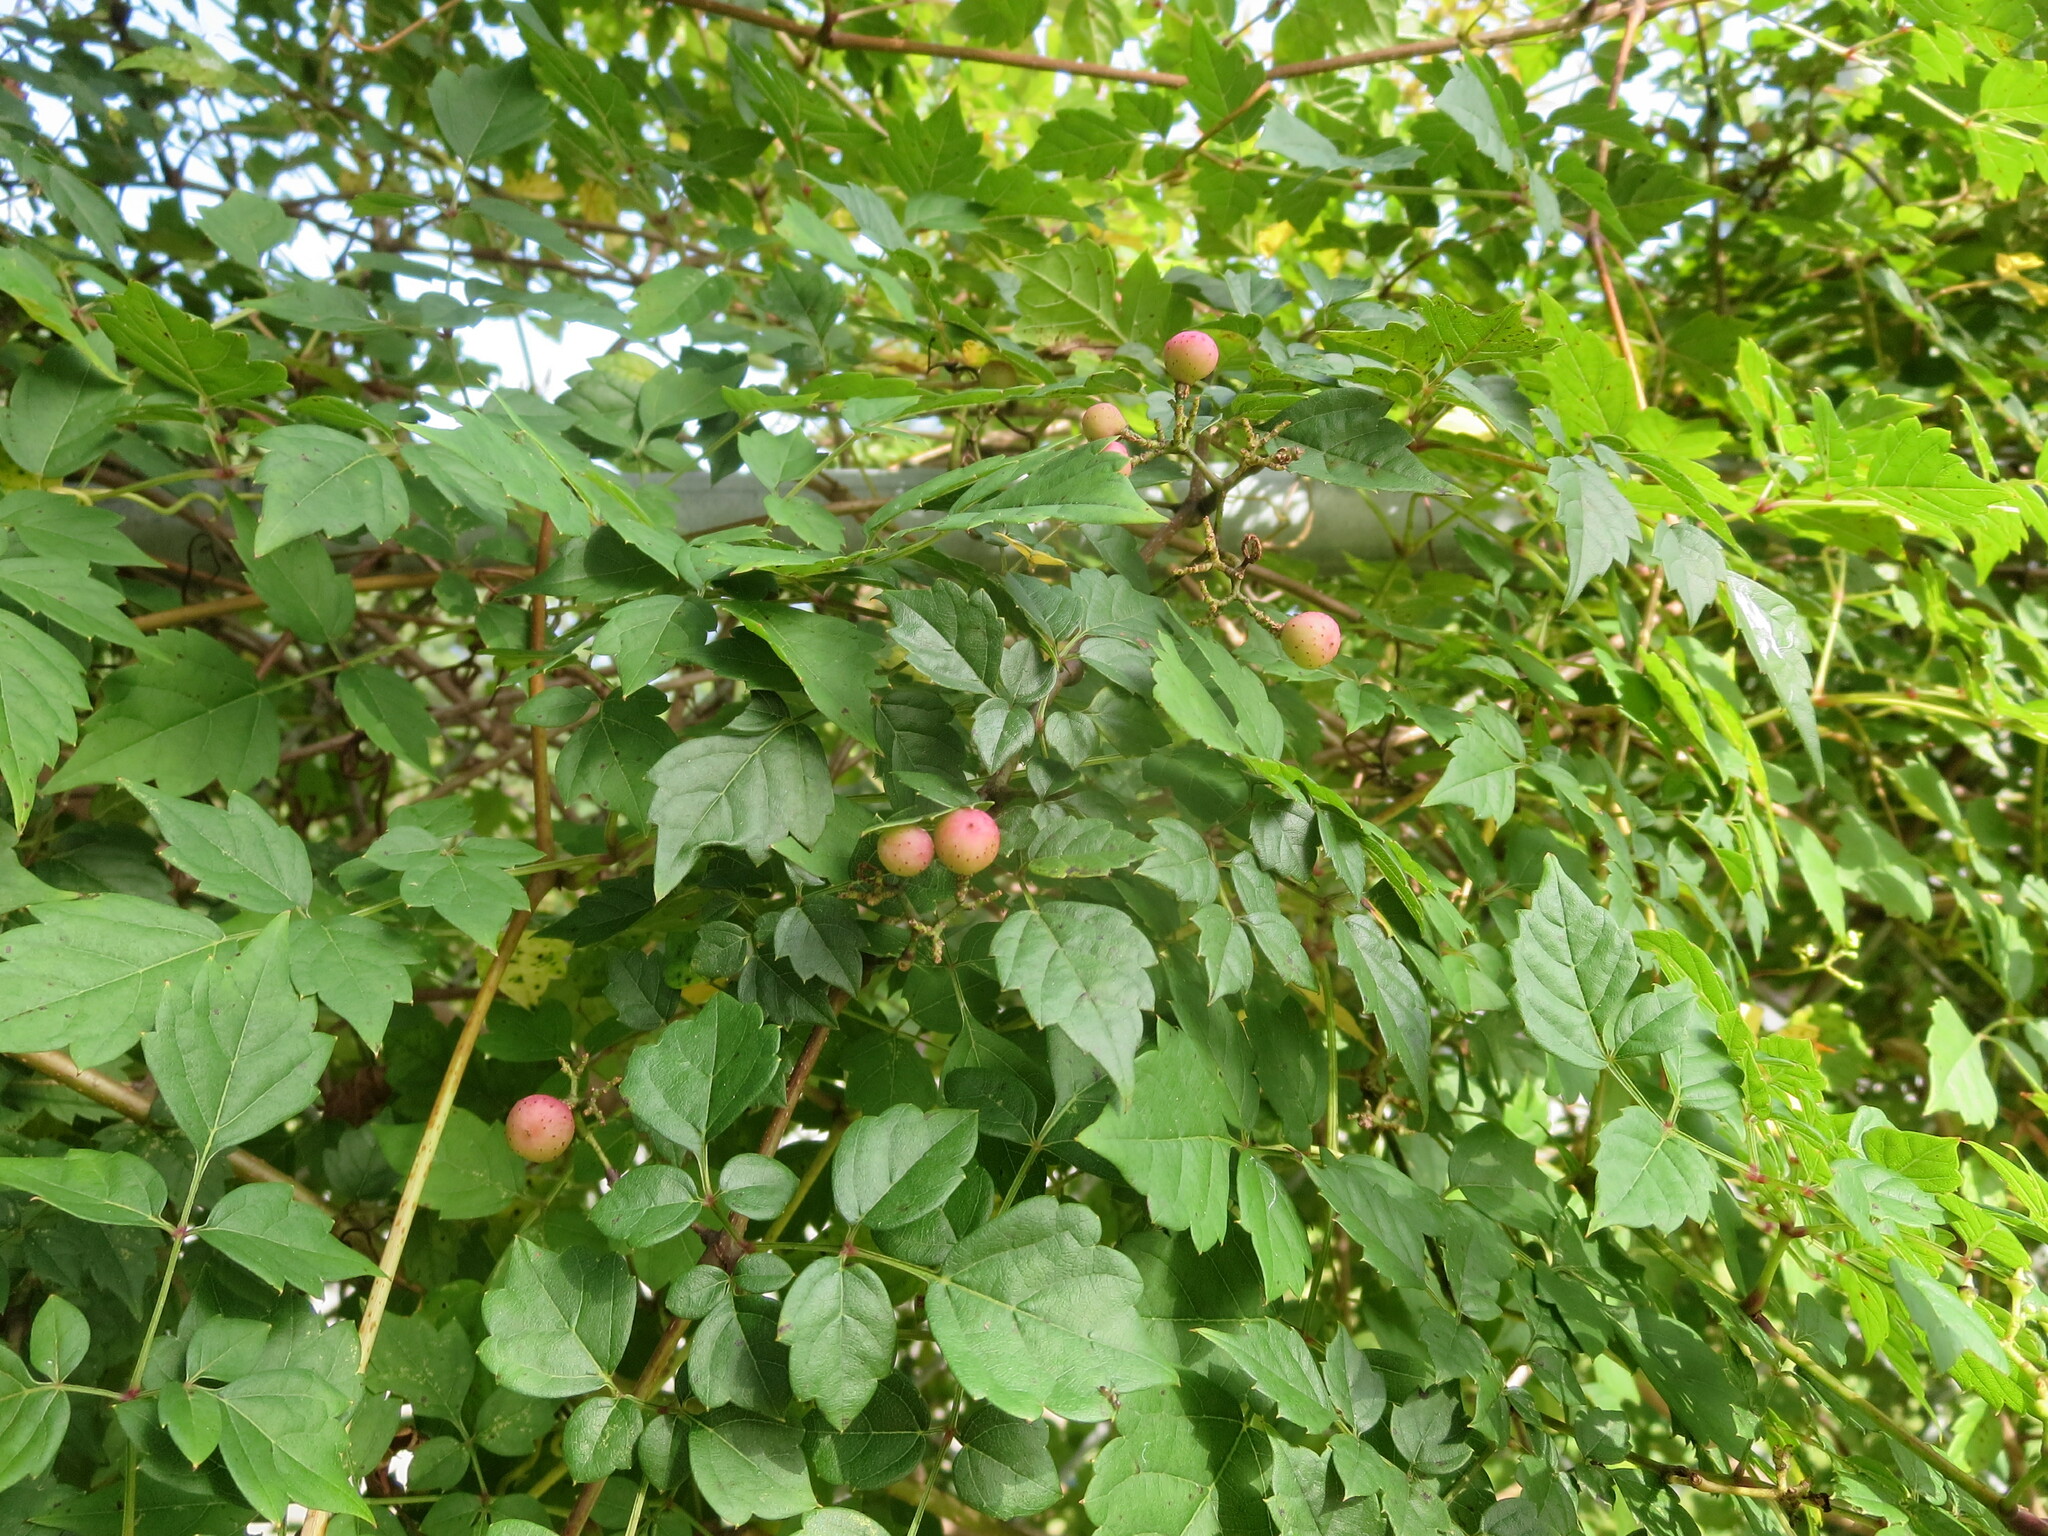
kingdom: Plantae
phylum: Tracheophyta
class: Magnoliopsida
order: Vitales
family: Vitaceae
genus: Nekemias
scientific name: Nekemias arborea
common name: Peppervine
